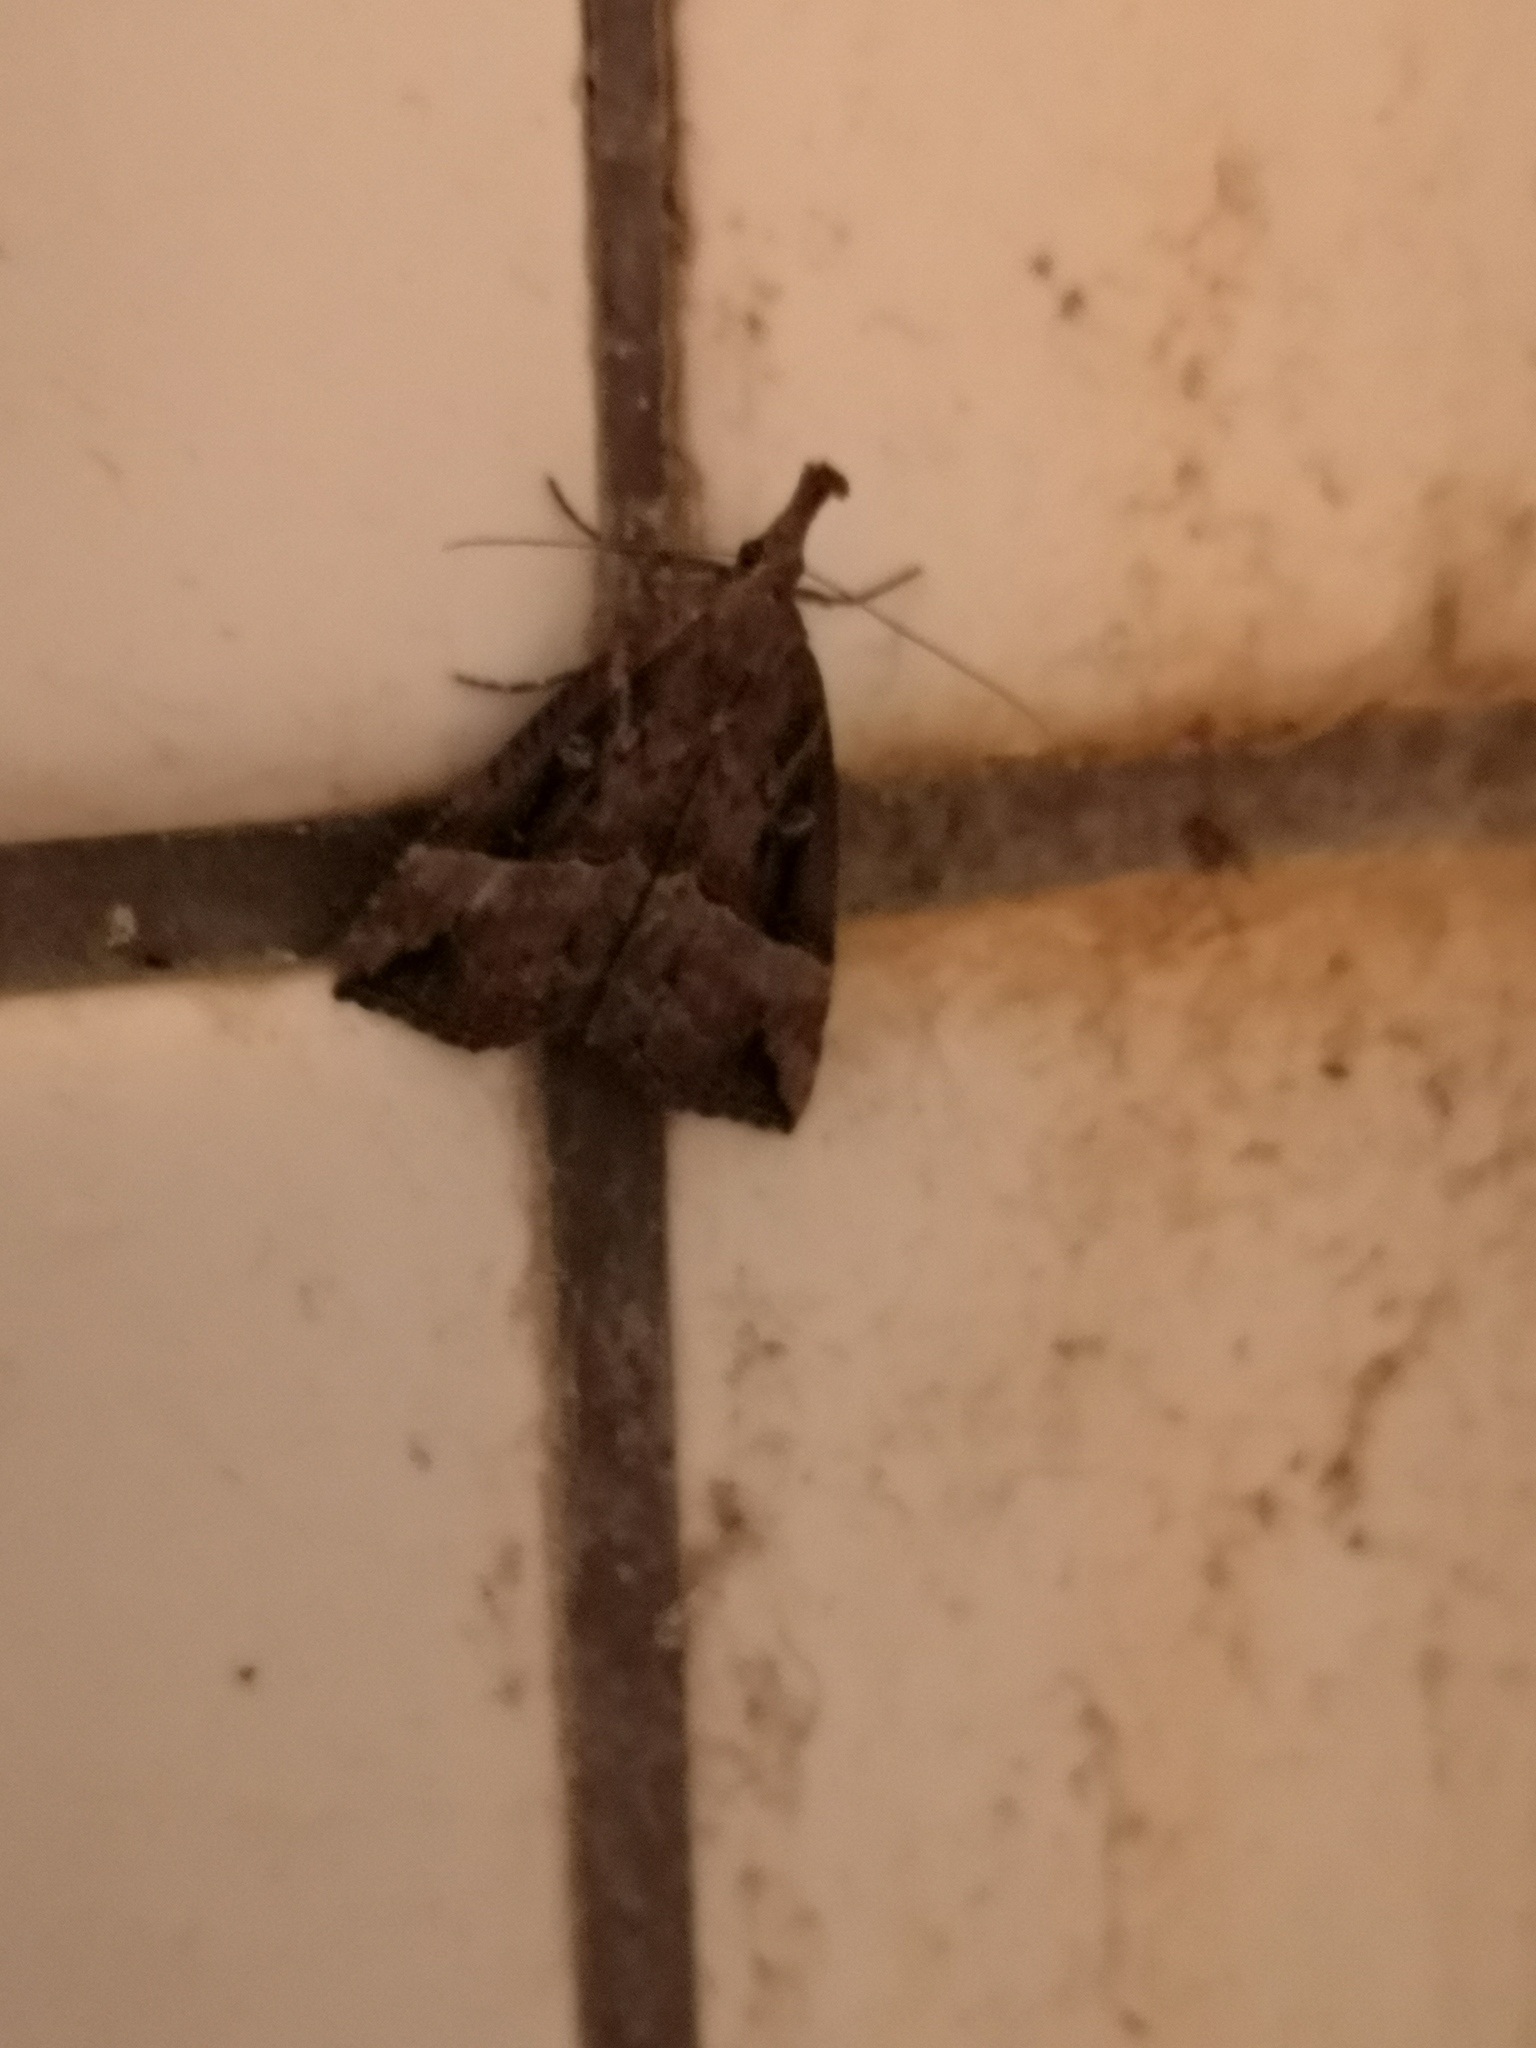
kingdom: Animalia
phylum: Arthropoda
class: Insecta
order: Lepidoptera
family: Erebidae
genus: Hypena
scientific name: Hypena rostralis
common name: Buttoned snout
